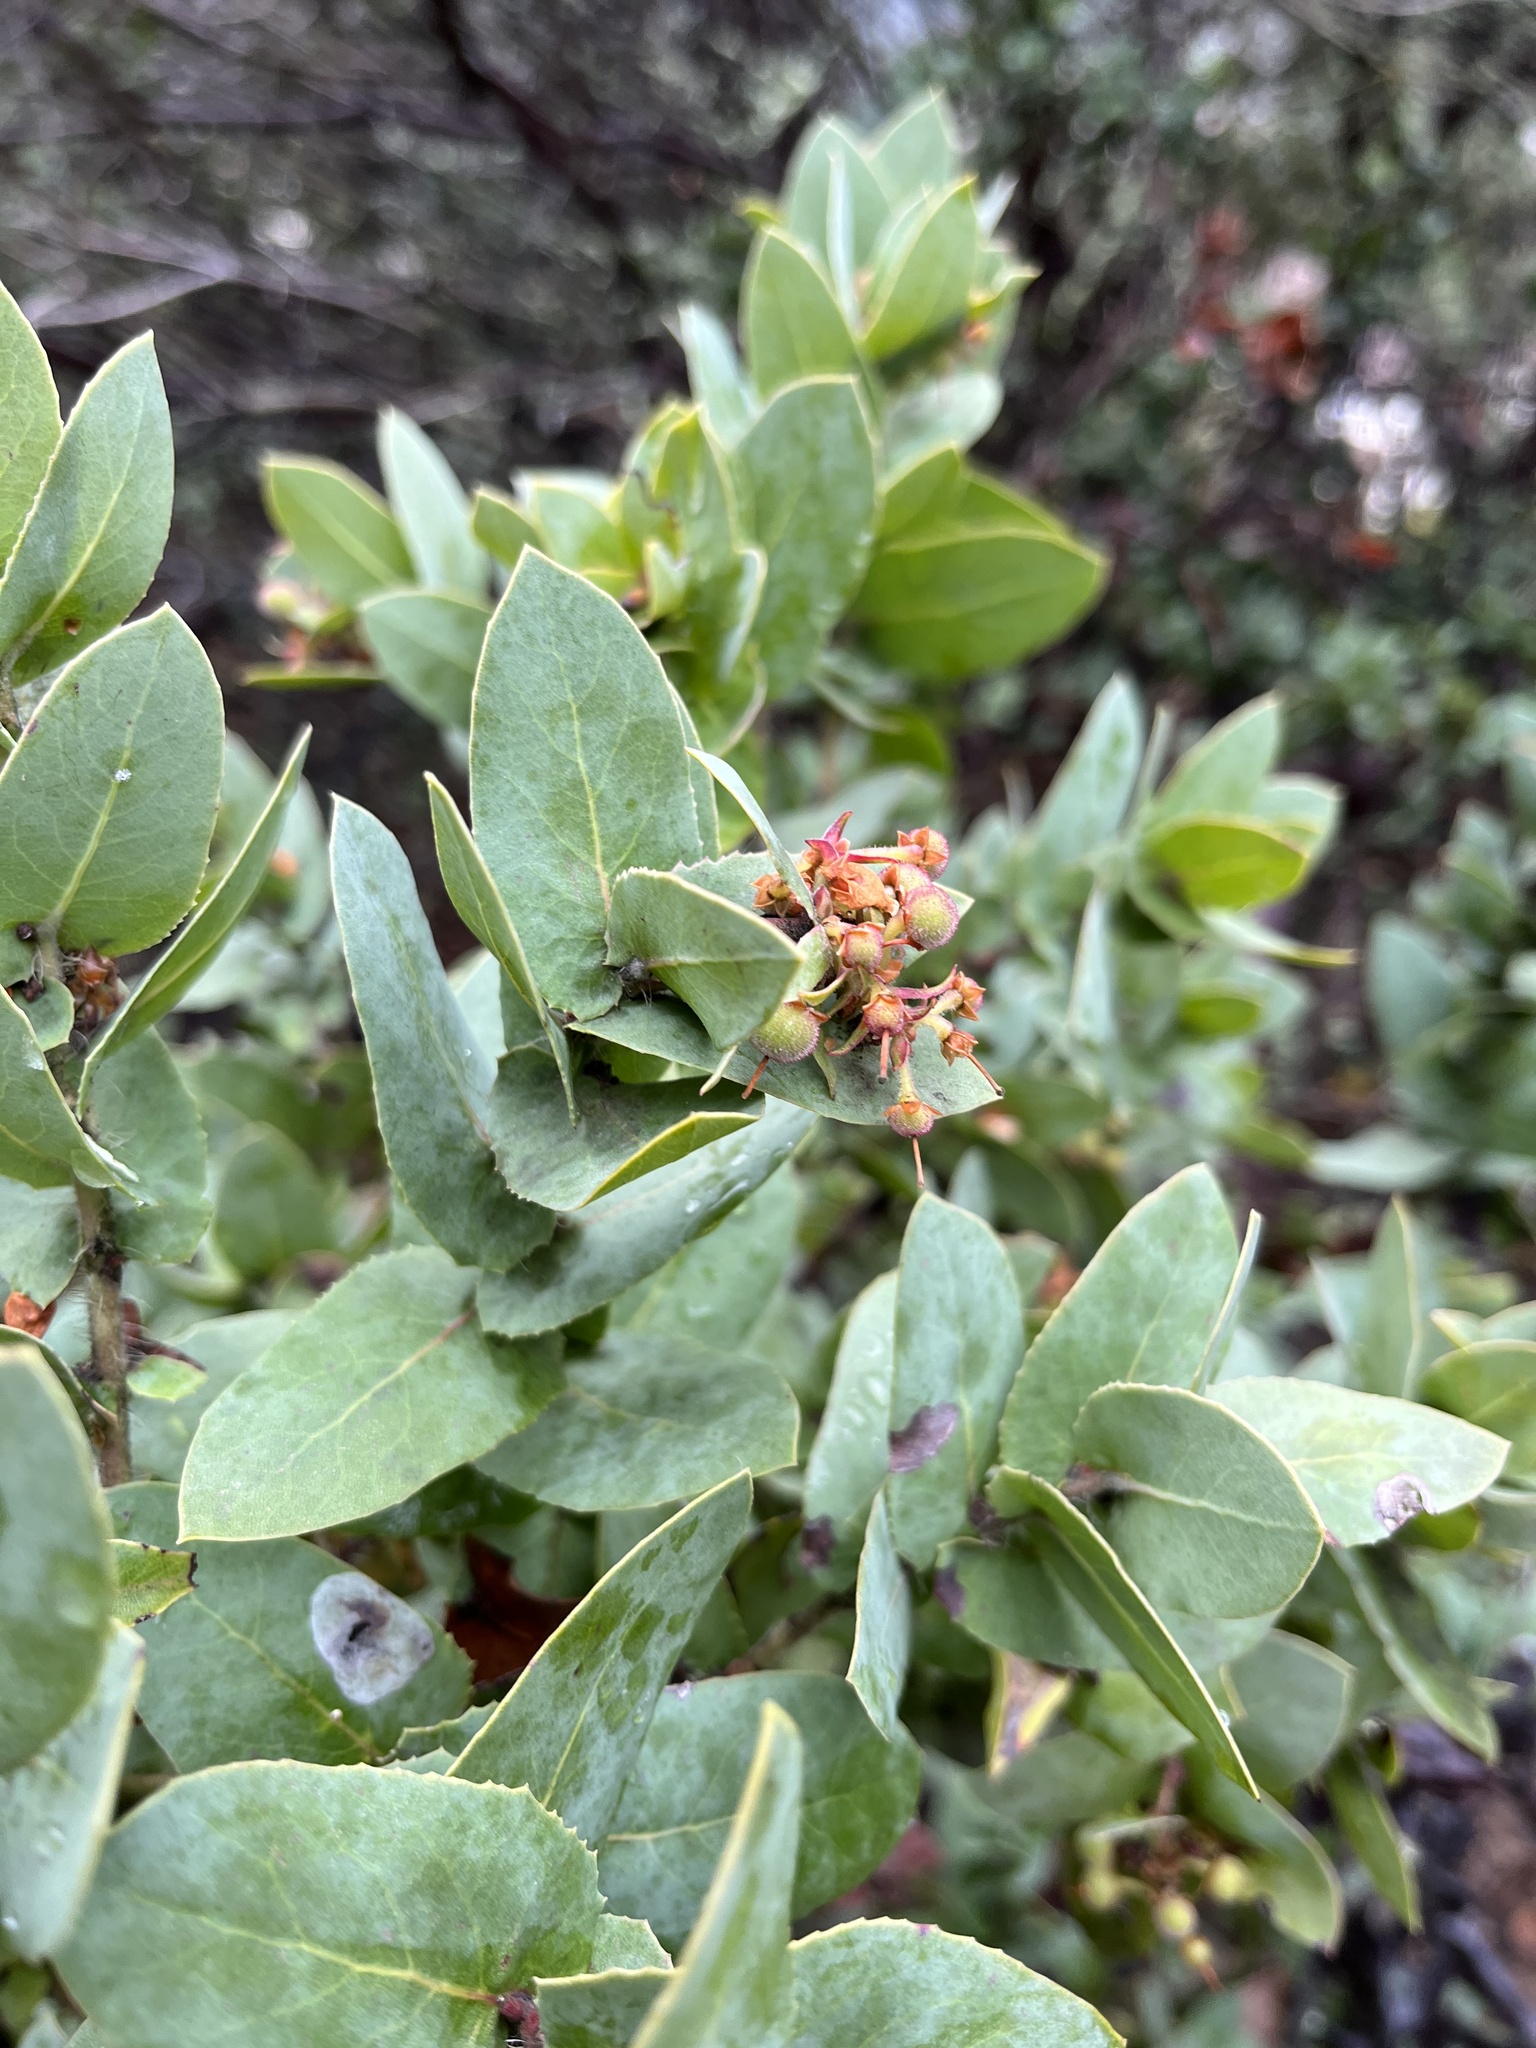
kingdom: Plantae
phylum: Tracheophyta
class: Magnoliopsida
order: Ericales
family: Ericaceae
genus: Arctostaphylos
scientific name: Arctostaphylos pallida
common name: Pallid manzanita
